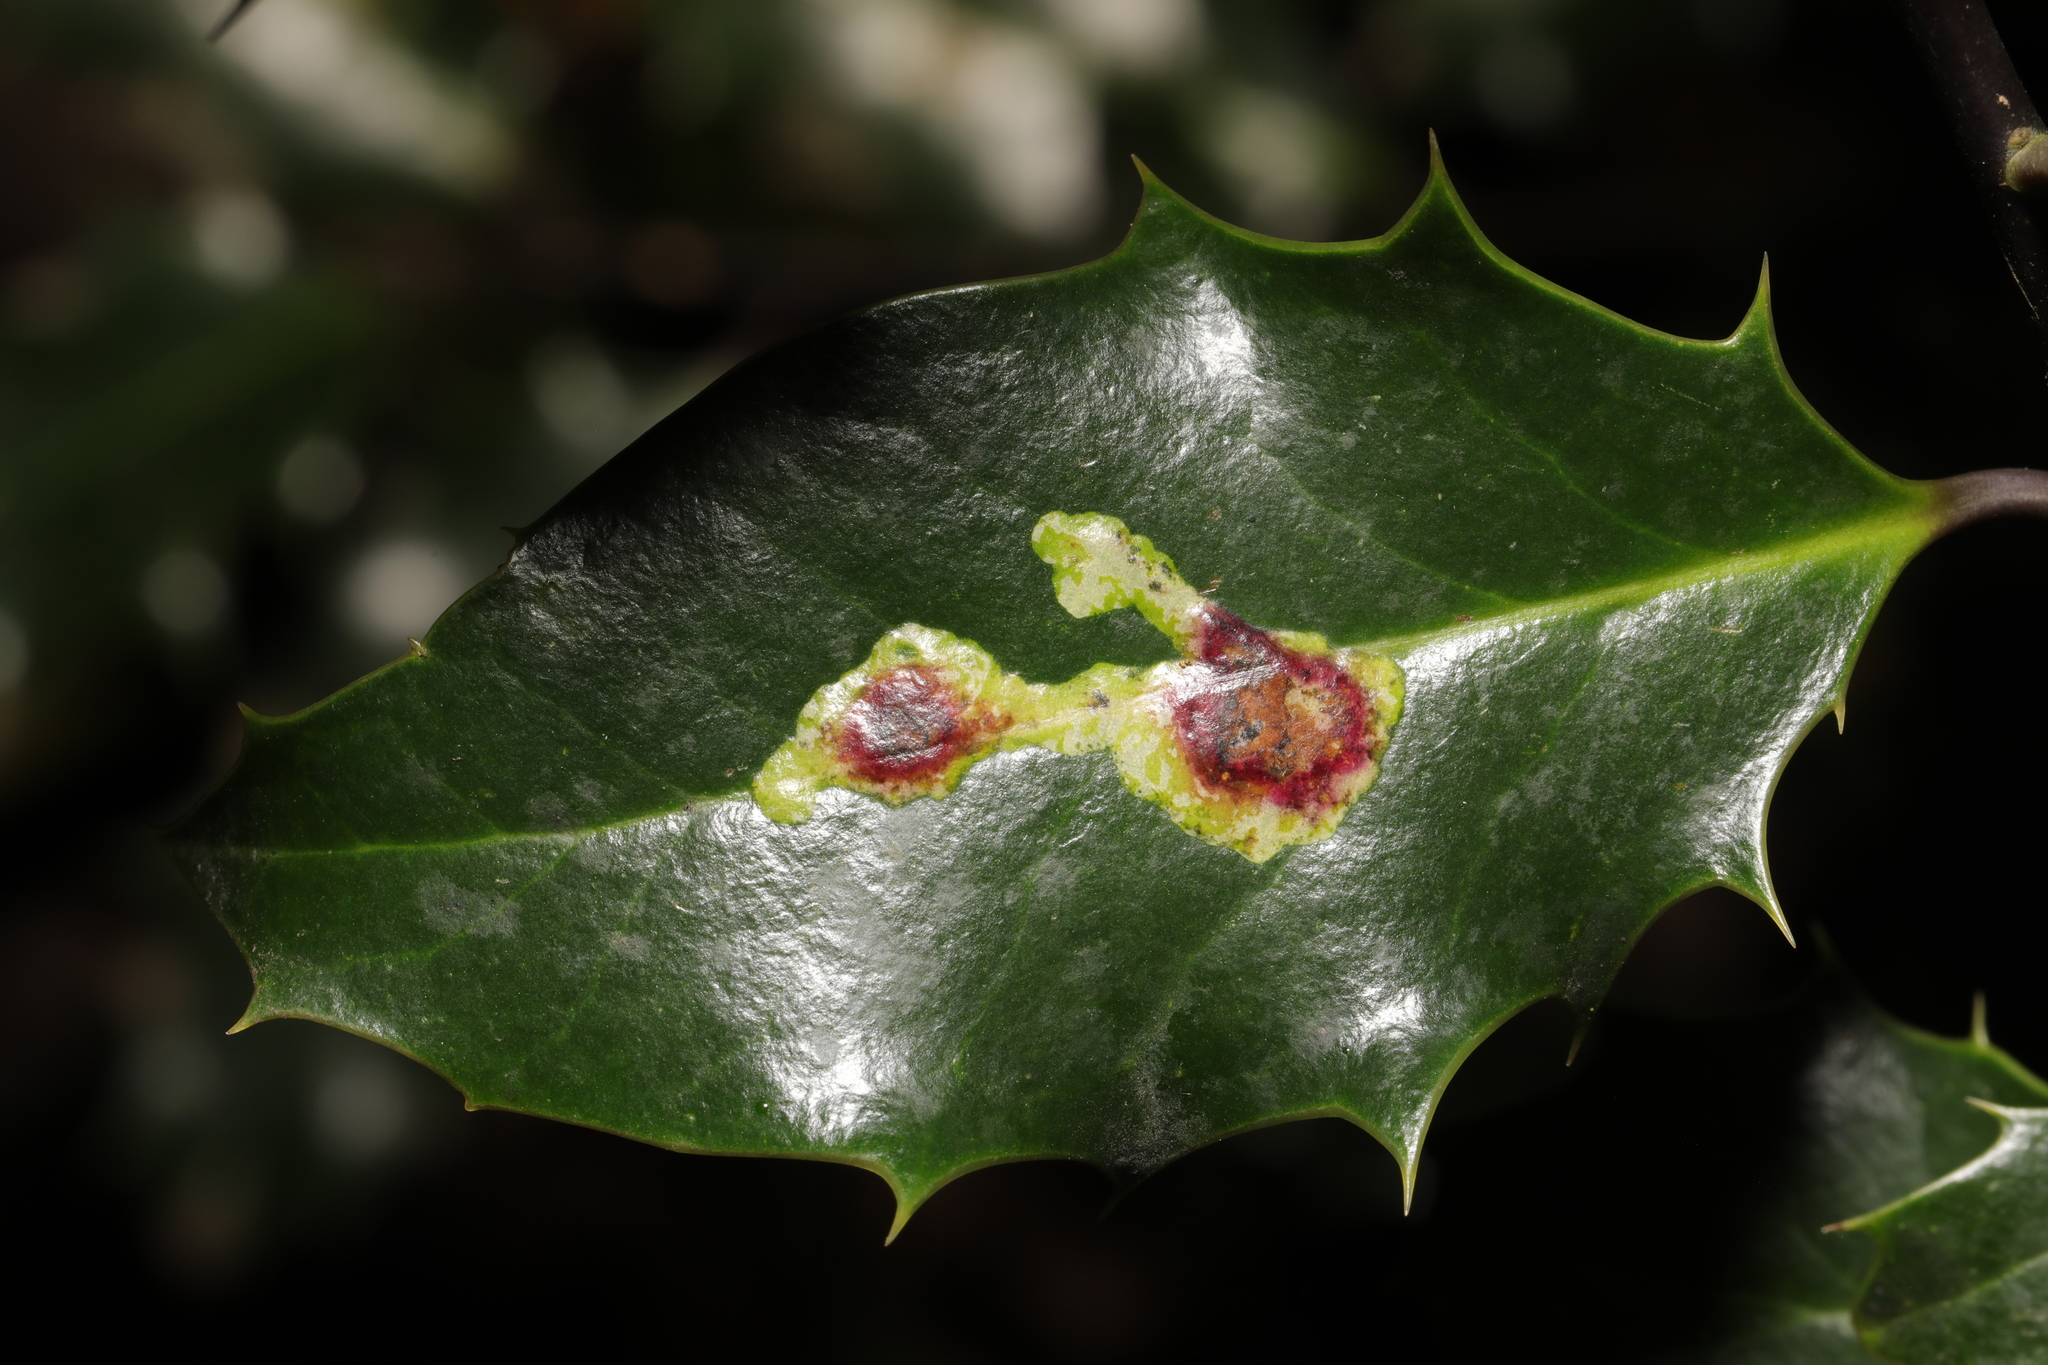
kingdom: Animalia
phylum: Arthropoda
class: Insecta
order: Diptera
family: Agromyzidae
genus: Phytomyza
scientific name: Phytomyza ilicis
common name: Holly leafminer
